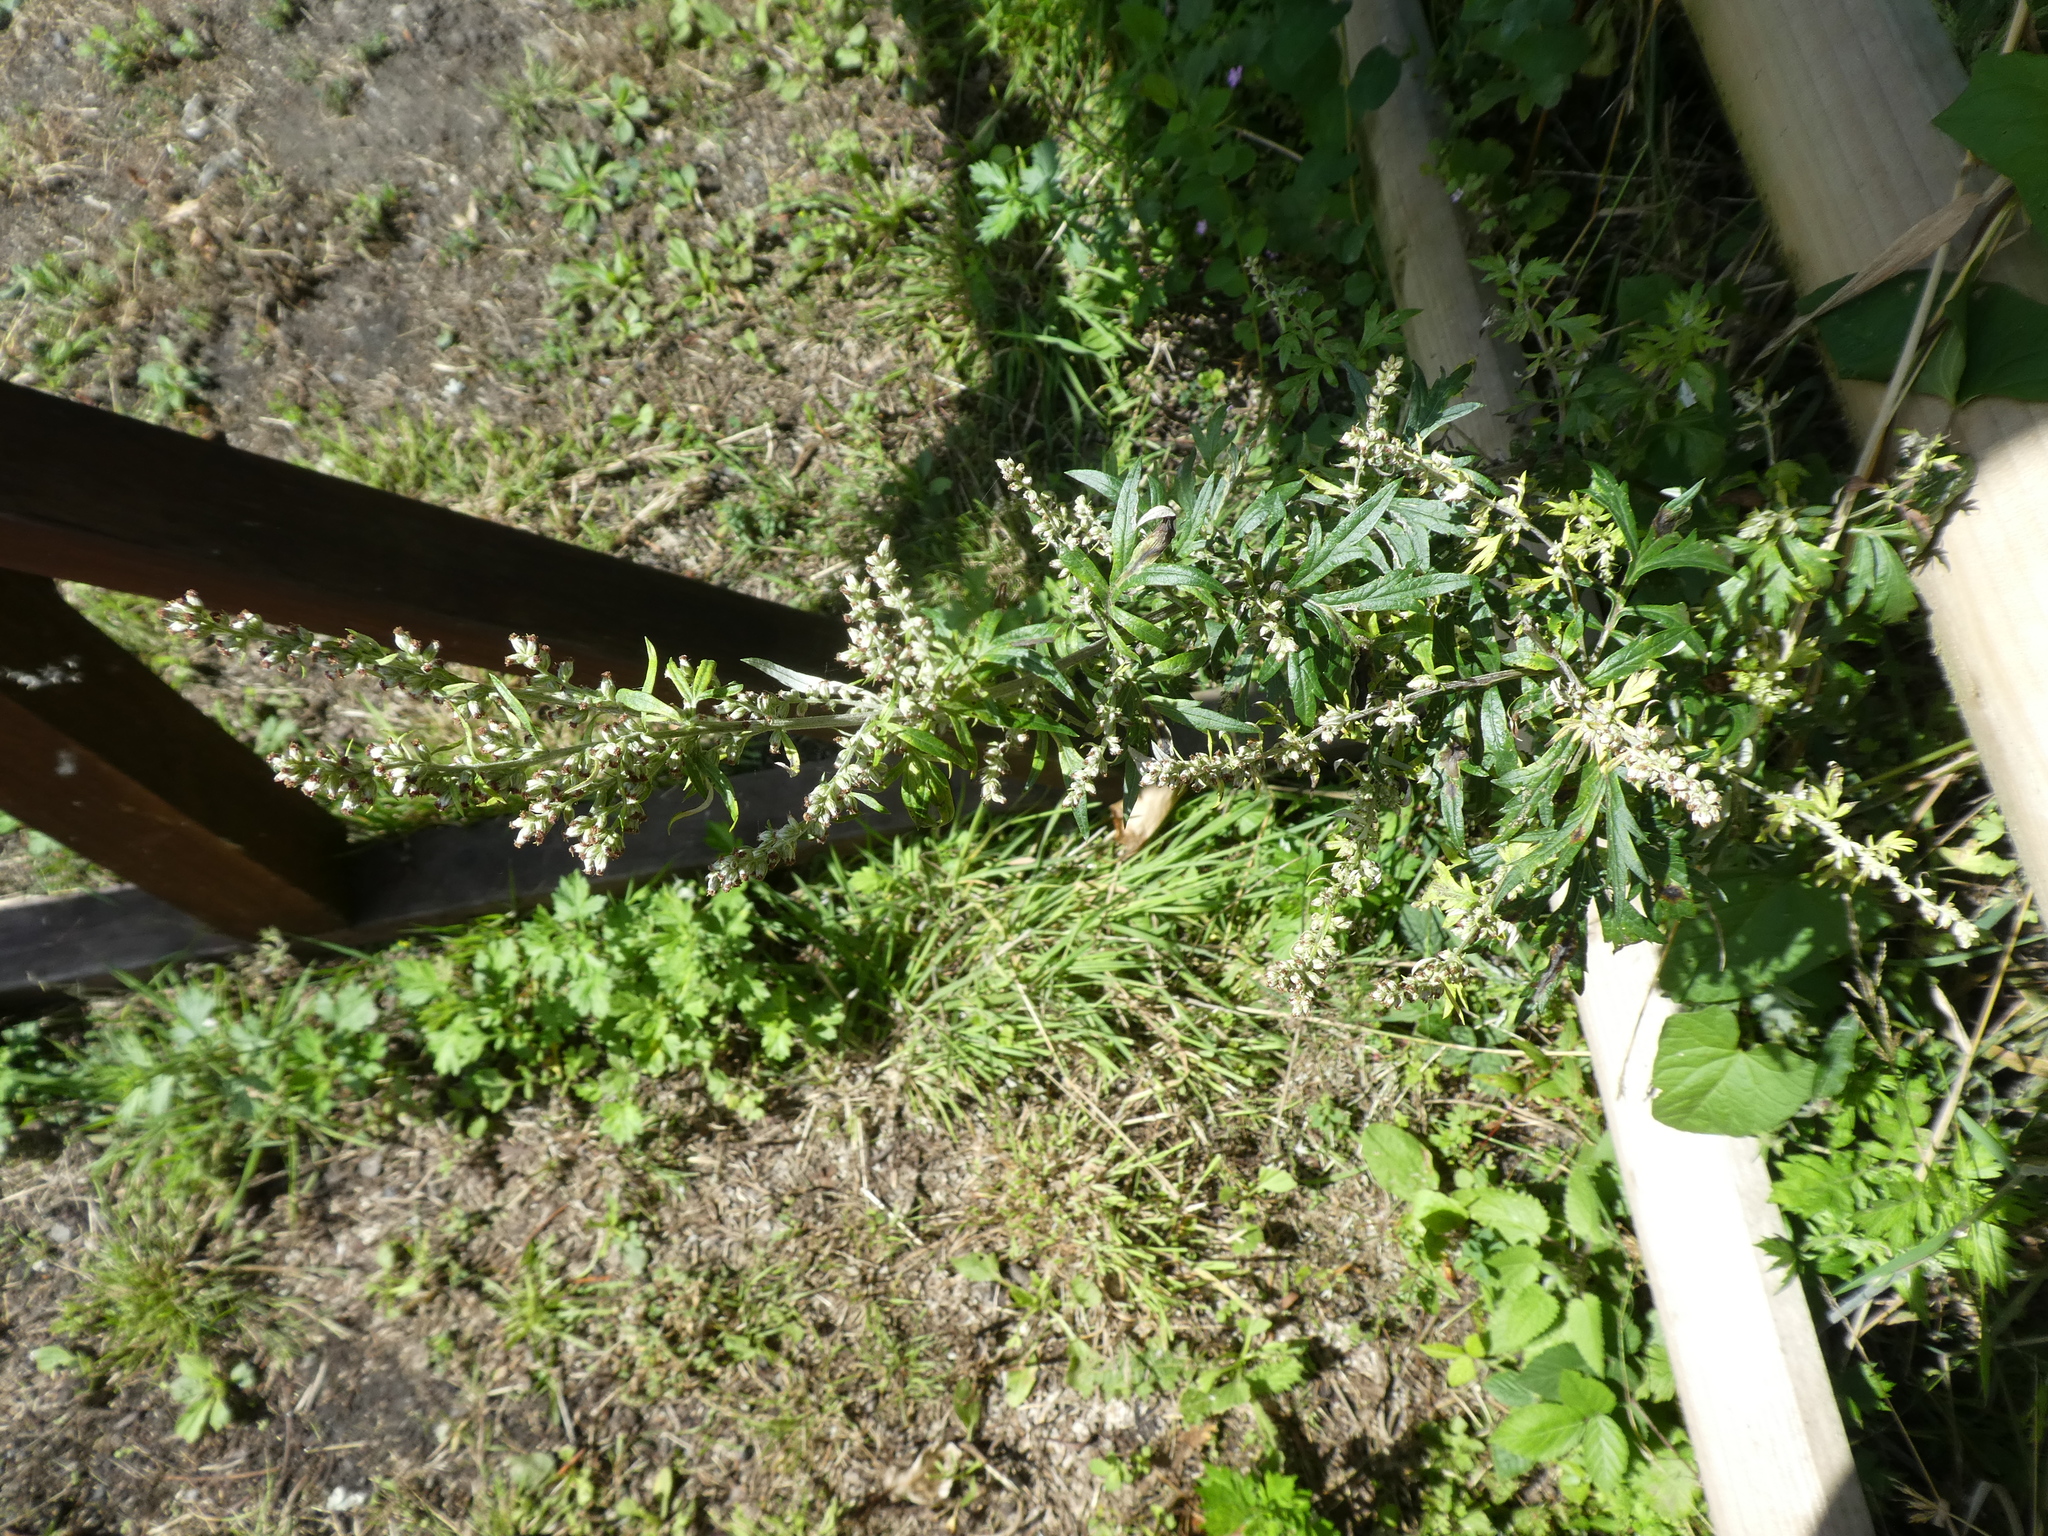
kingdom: Plantae
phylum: Tracheophyta
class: Magnoliopsida
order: Asterales
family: Asteraceae
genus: Artemisia
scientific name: Artemisia vulgaris
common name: Mugwort
